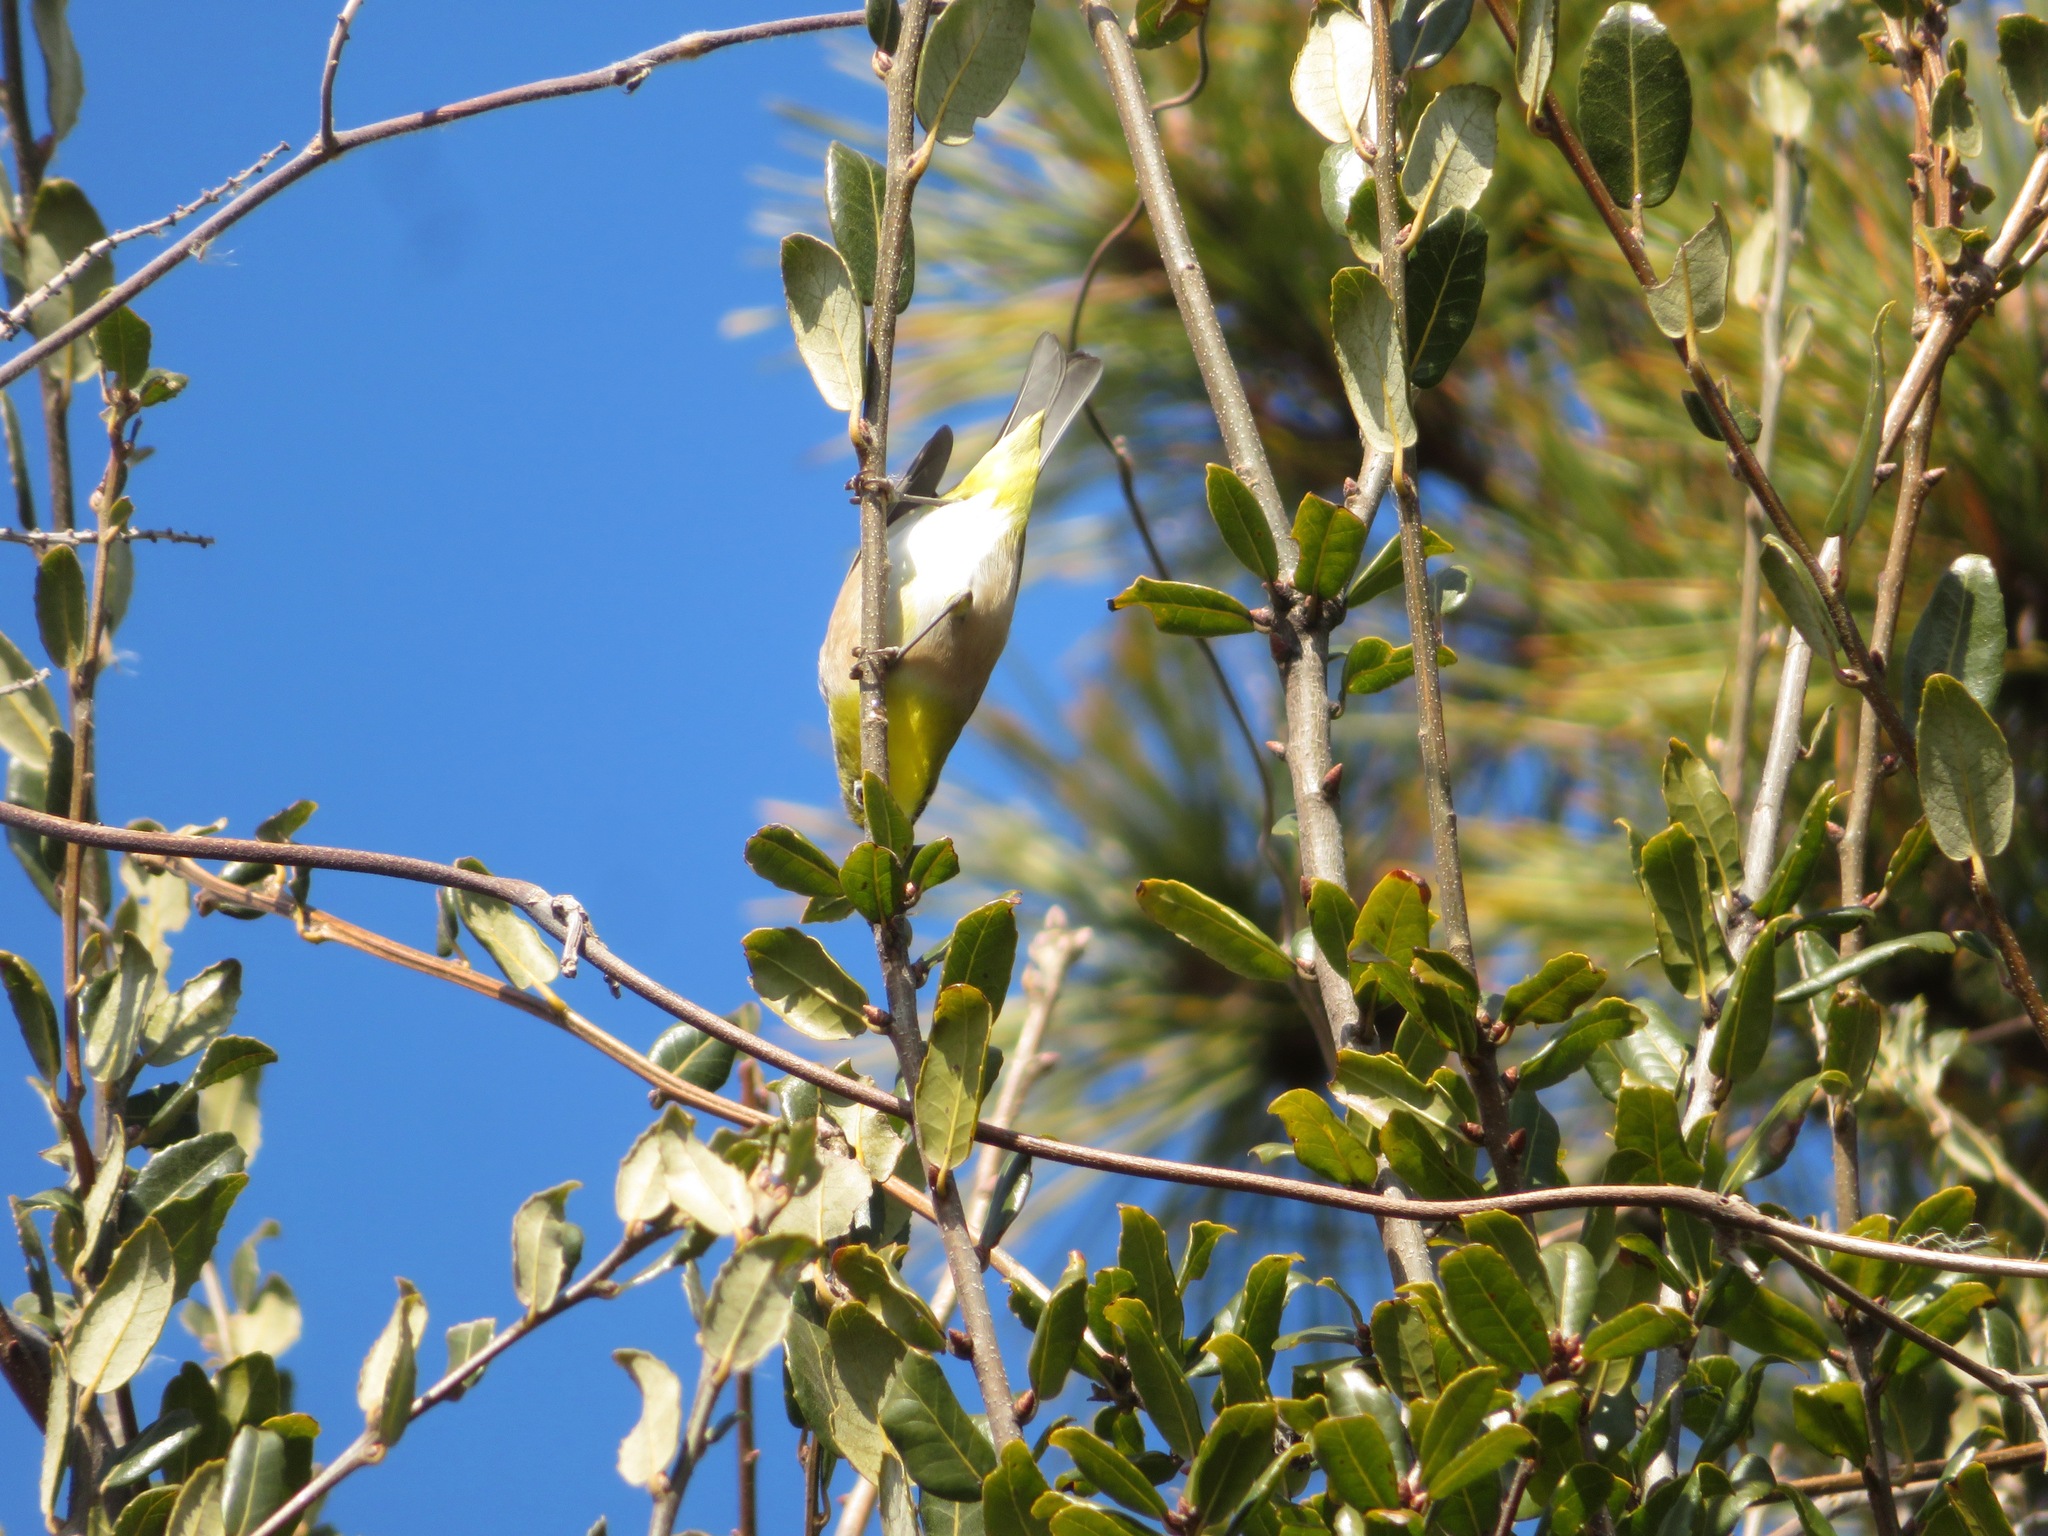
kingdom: Animalia
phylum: Chordata
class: Aves
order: Passeriformes
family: Zosteropidae
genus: Zosterops
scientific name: Zosterops japonicus
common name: Japanese white-eye
